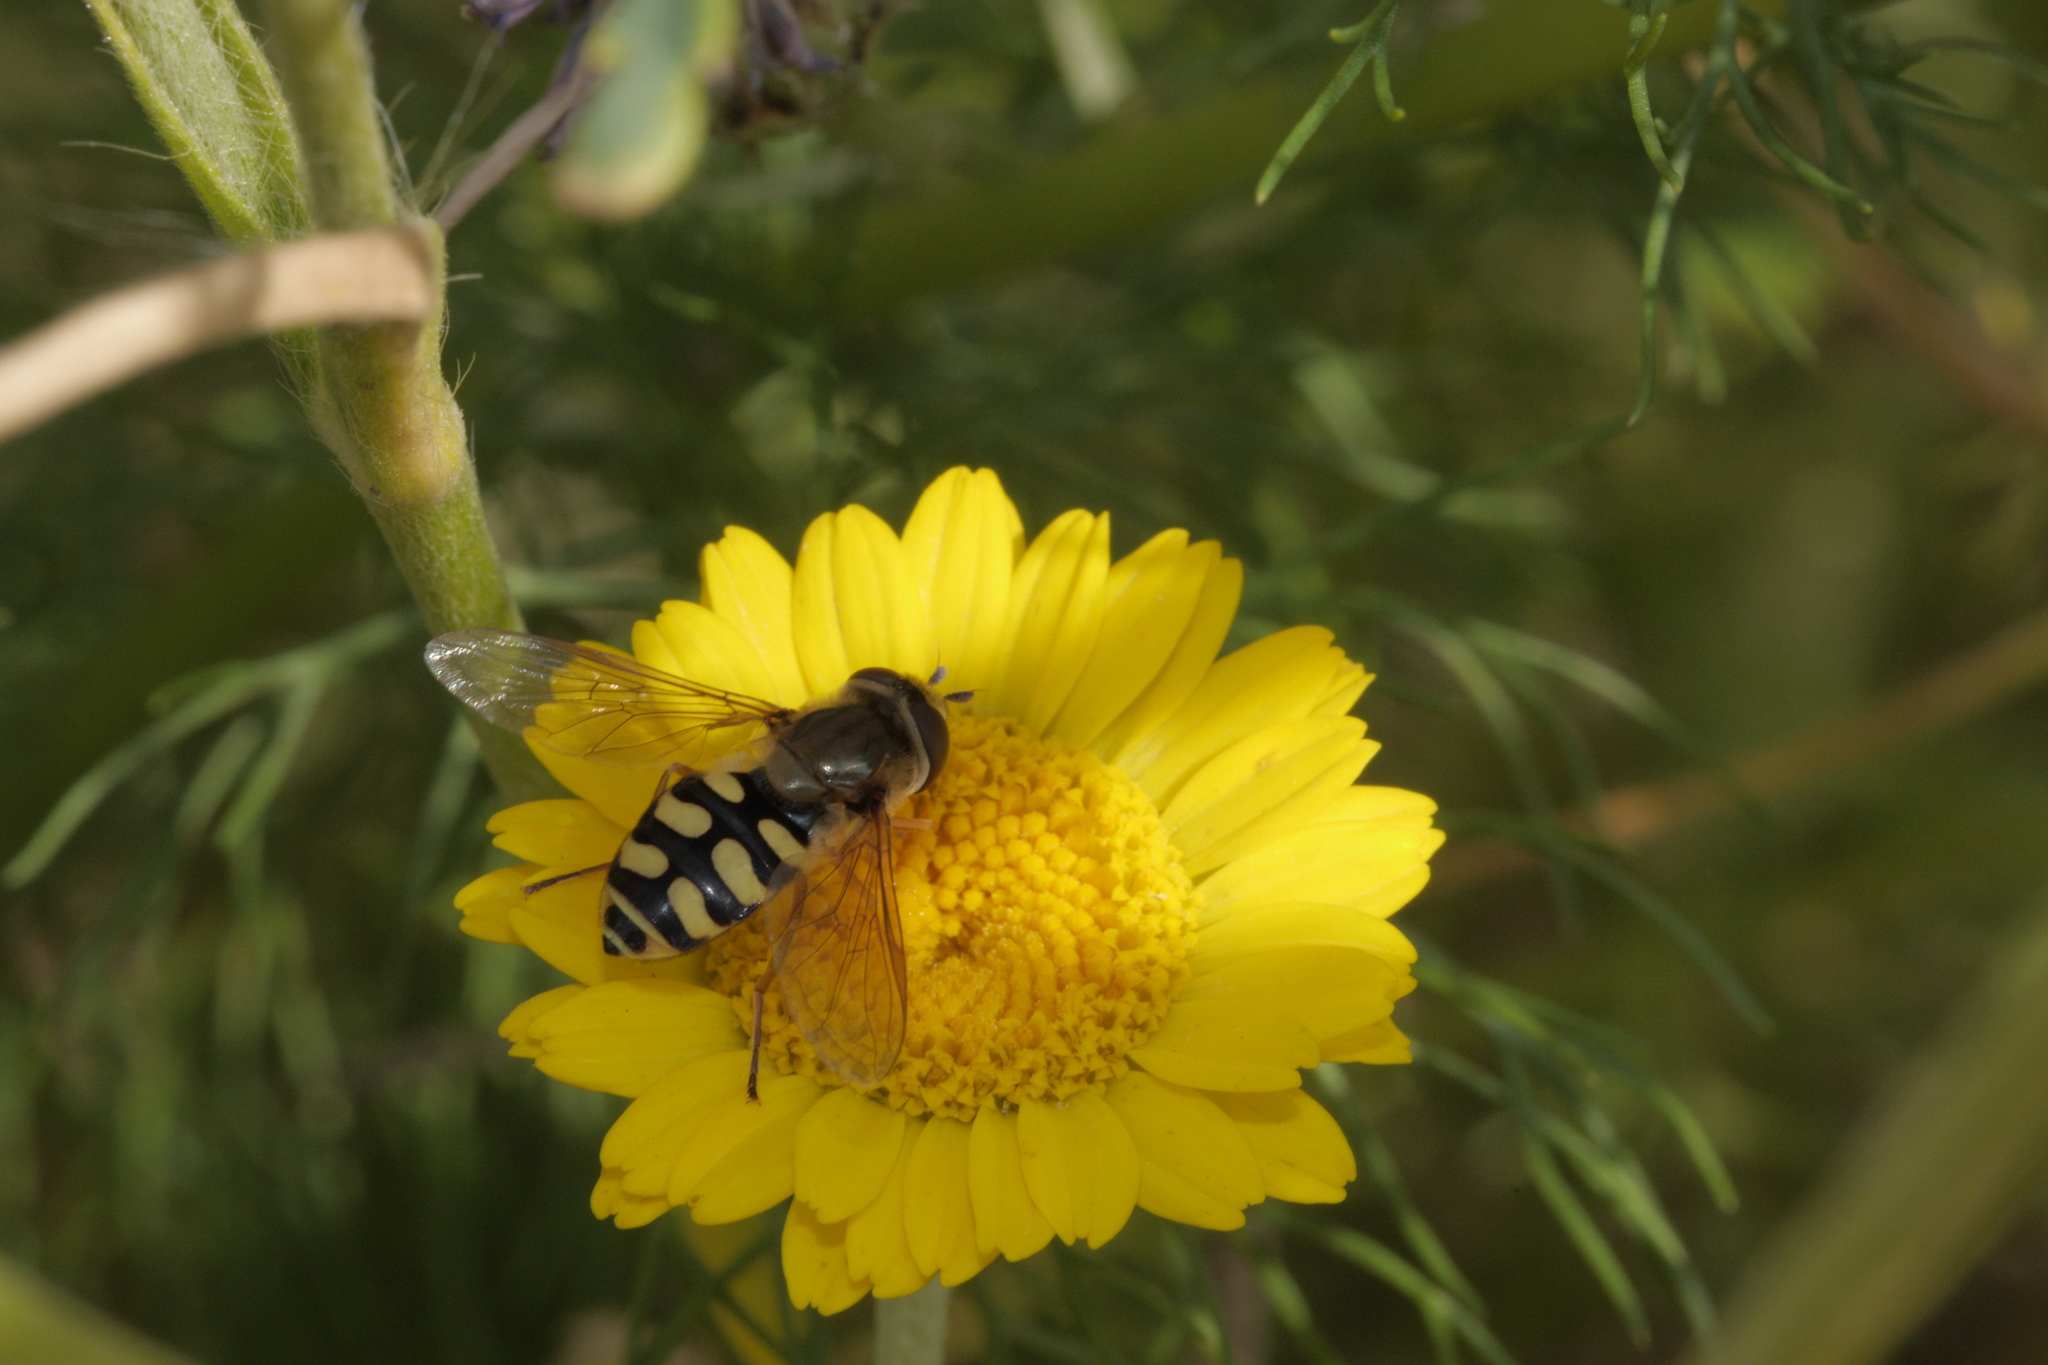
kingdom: Animalia
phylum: Arthropoda
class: Insecta
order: Diptera
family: Syrphidae
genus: Eupeodes
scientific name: Eupeodes corollae
